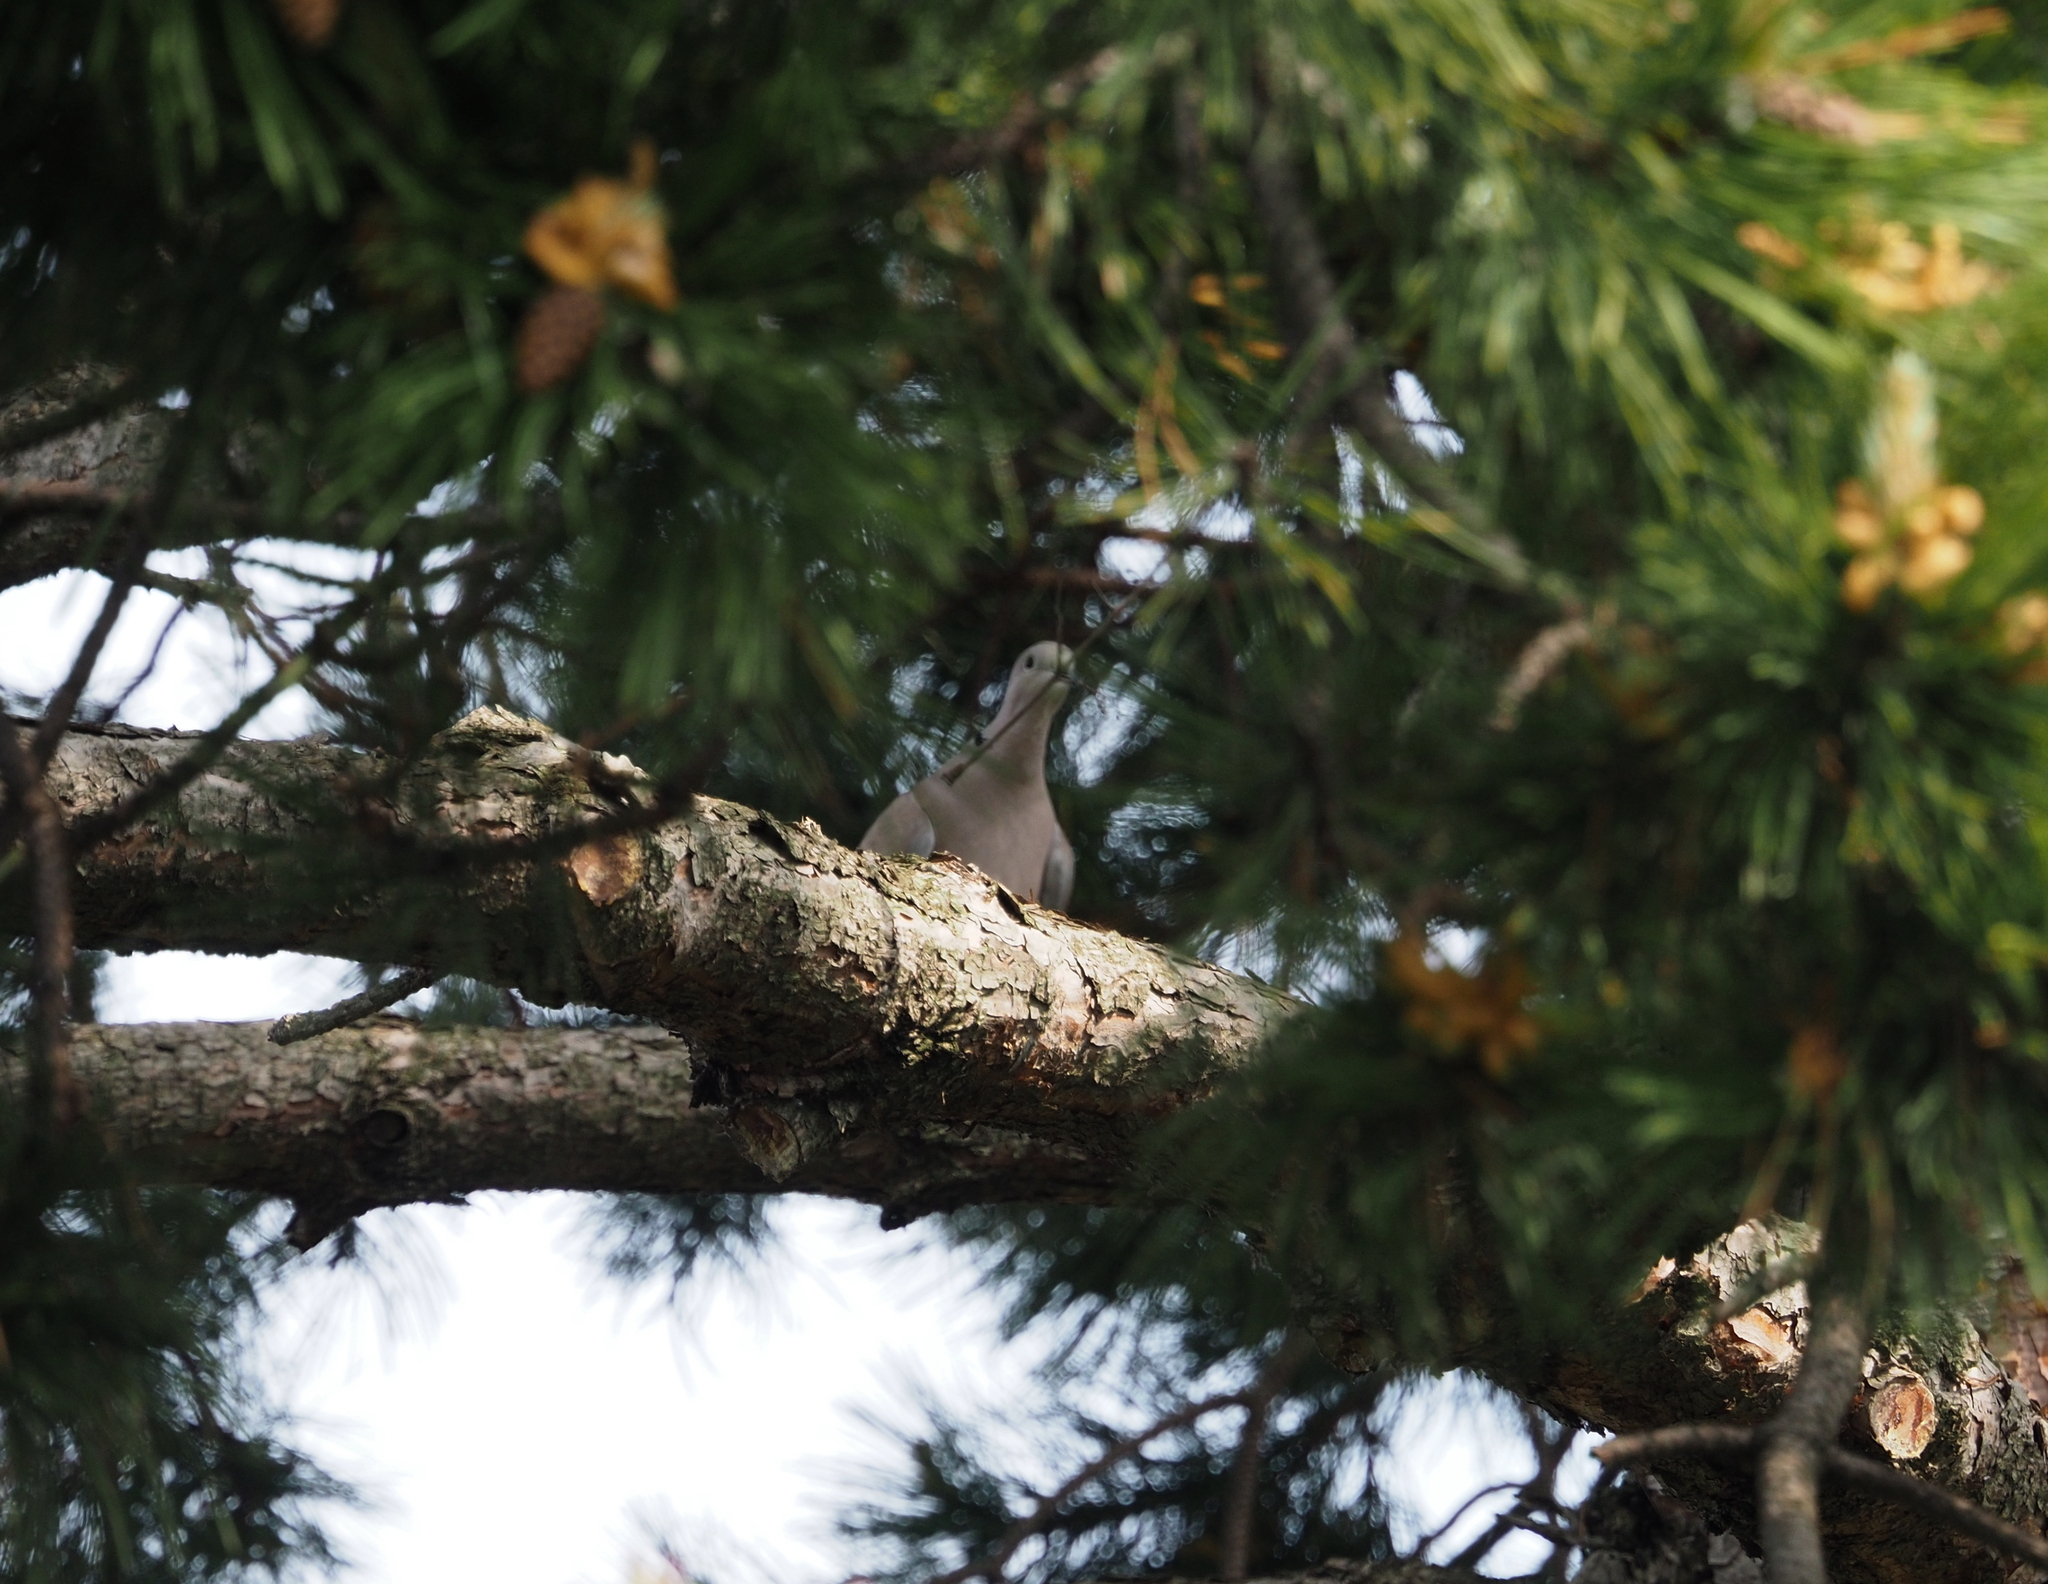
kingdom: Animalia
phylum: Chordata
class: Aves
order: Columbiformes
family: Columbidae
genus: Streptopelia
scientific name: Streptopelia decaocto
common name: Eurasian collared dove
